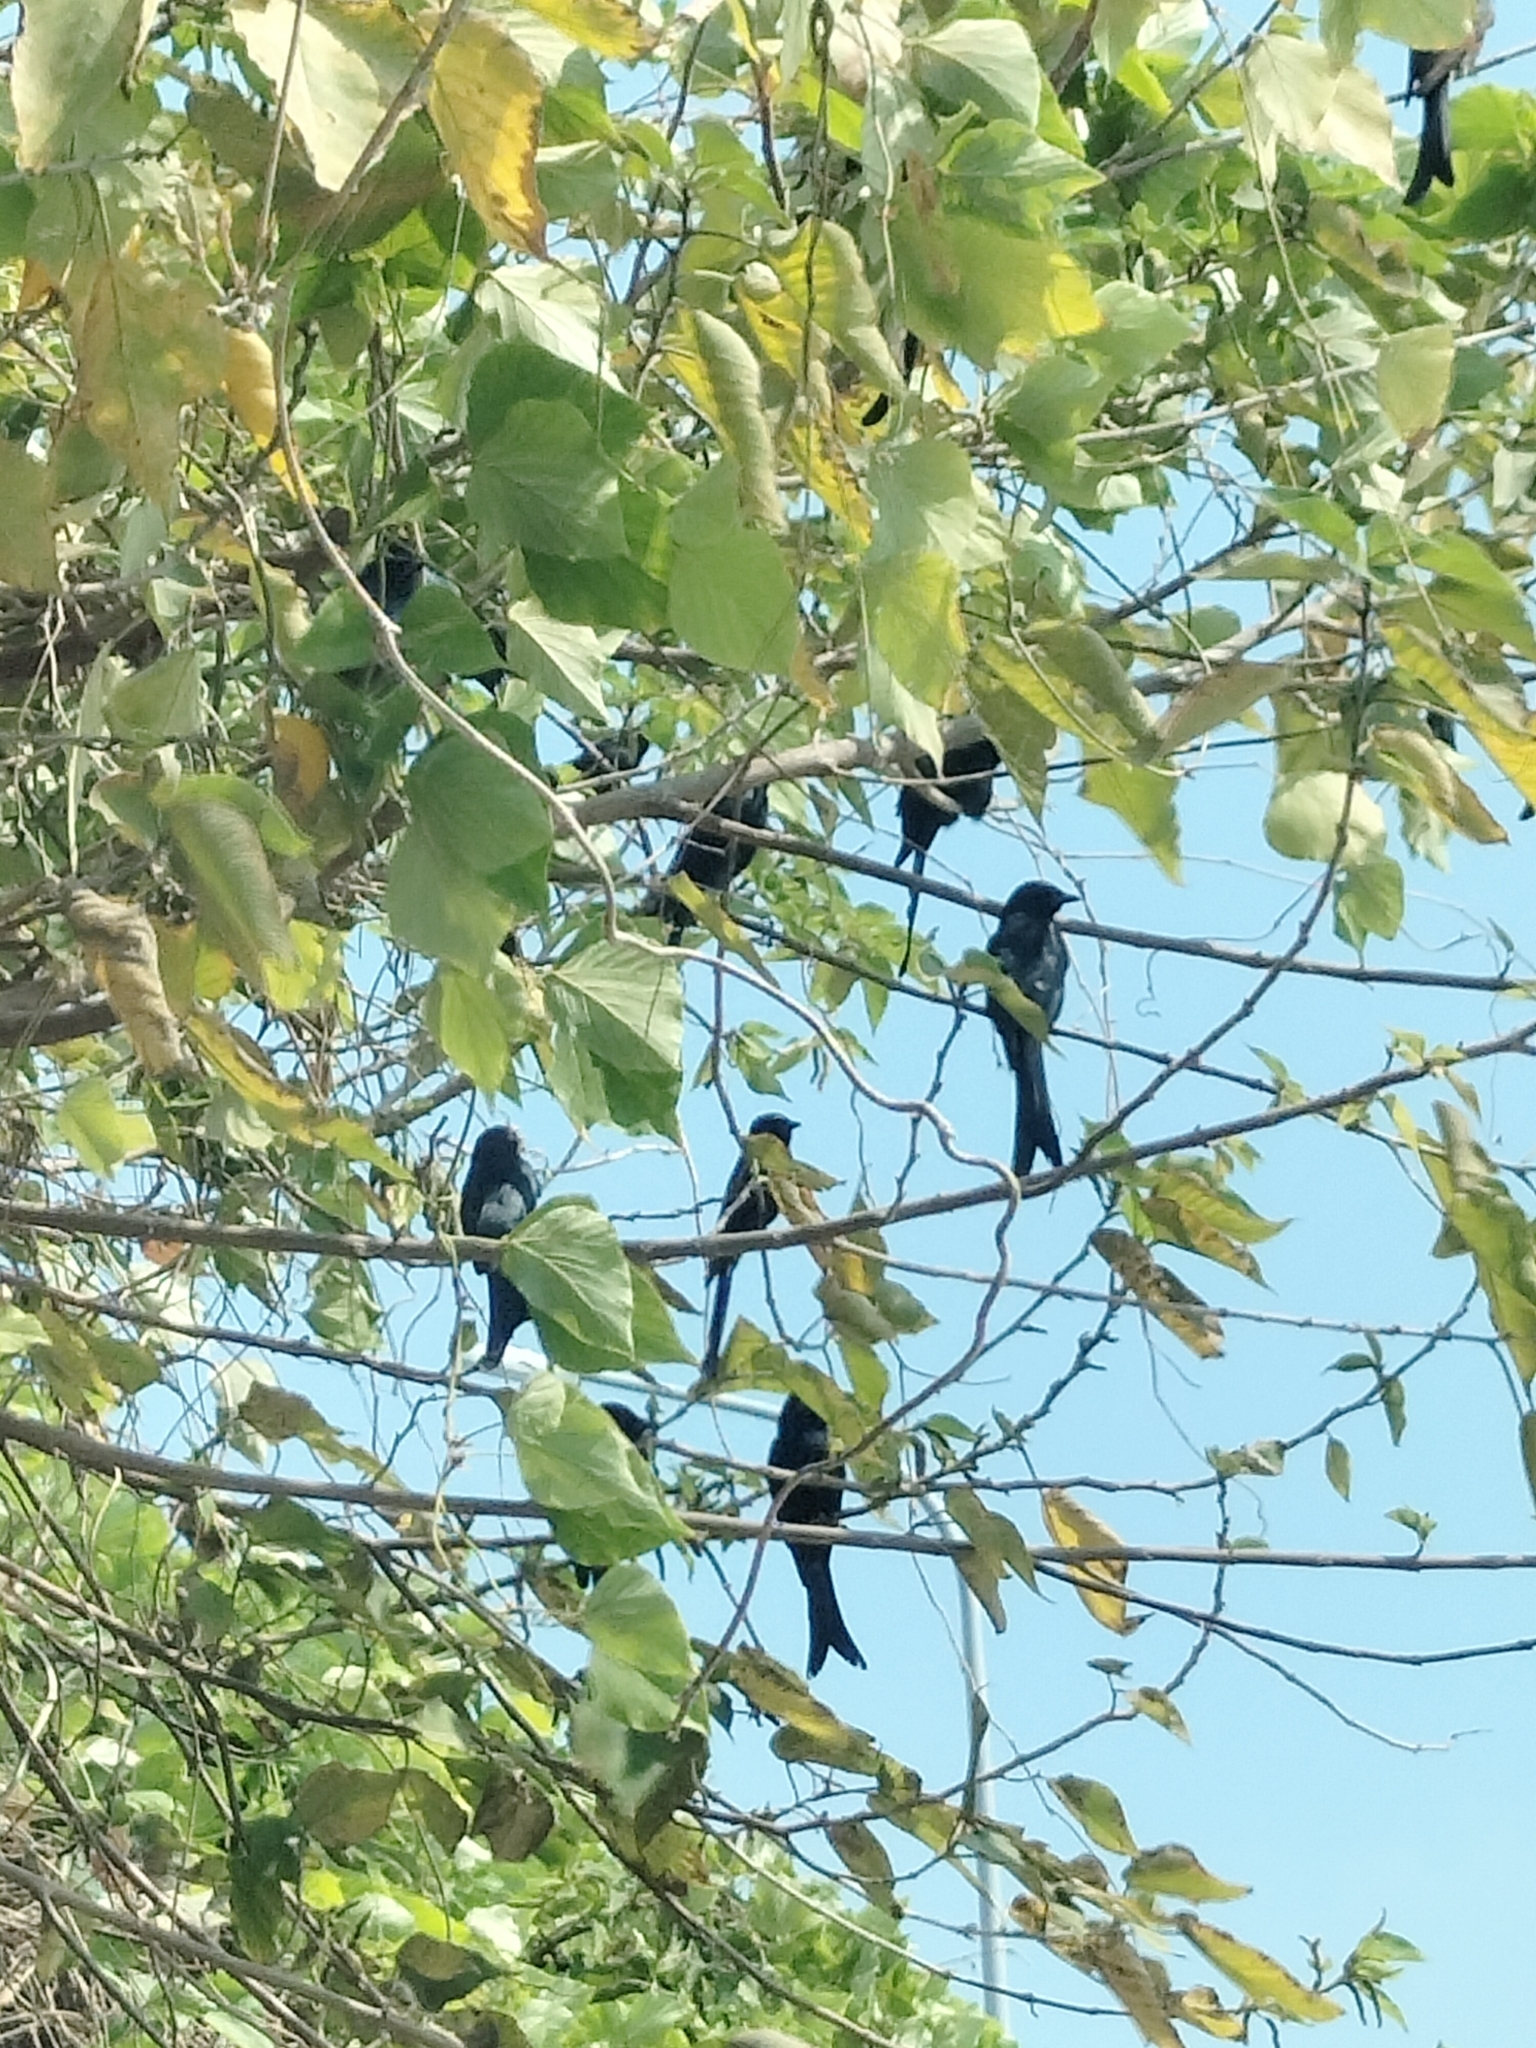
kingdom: Animalia
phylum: Chordata
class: Aves
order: Passeriformes
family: Dicruridae
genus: Dicrurus
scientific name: Dicrurus macrocercus
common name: Black drongo
